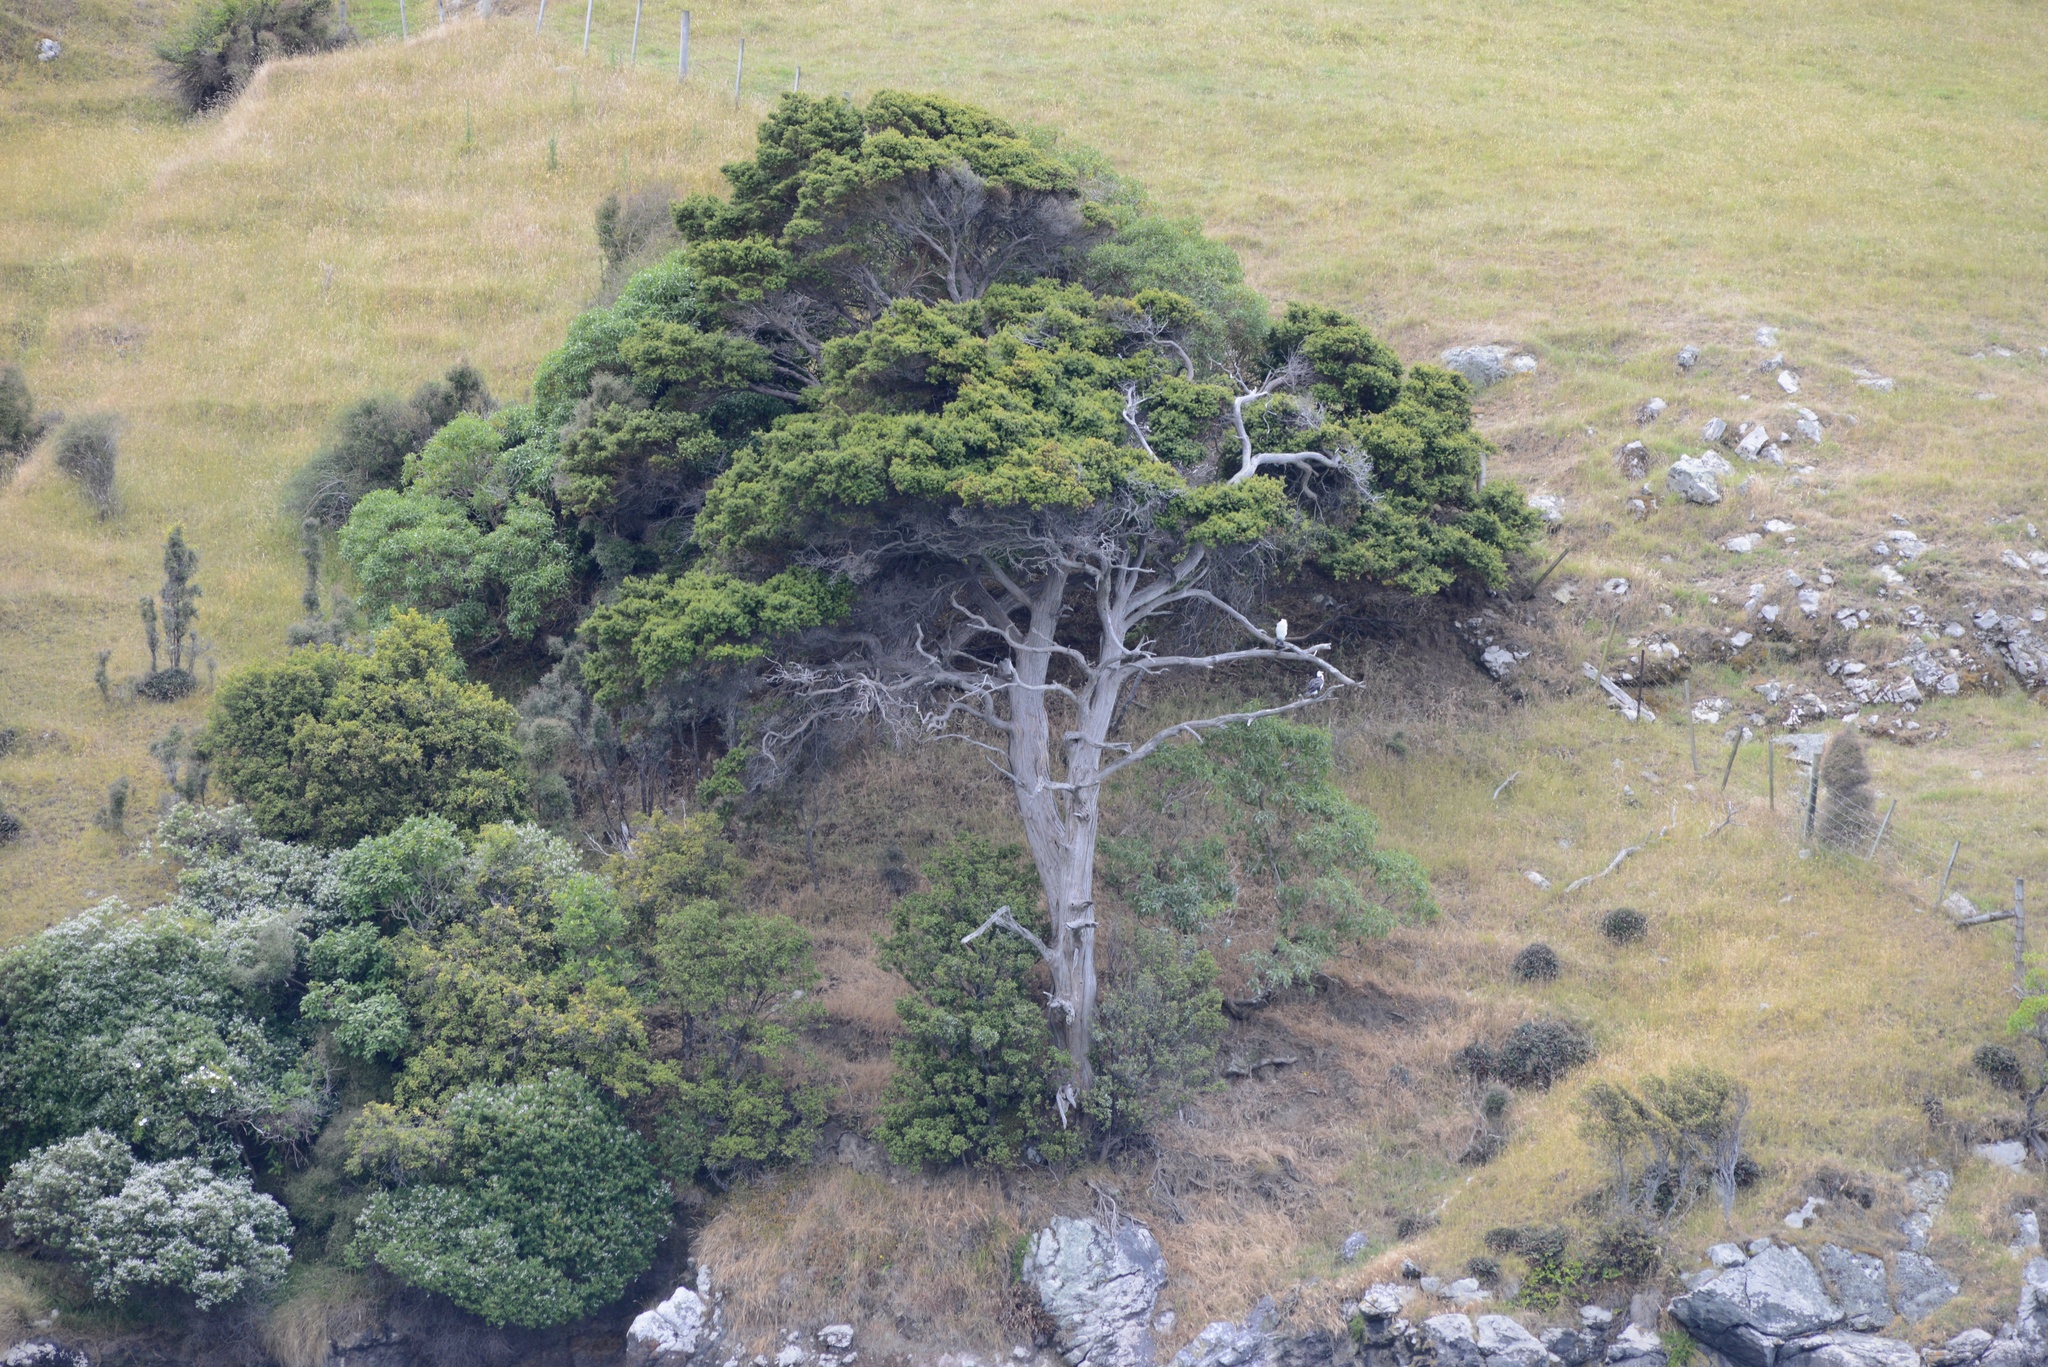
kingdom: Animalia
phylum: Chordata
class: Aves
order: Suliformes
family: Phalacrocoracidae
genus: Phalacrocorax
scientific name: Phalacrocorax varius
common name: Pied cormorant
